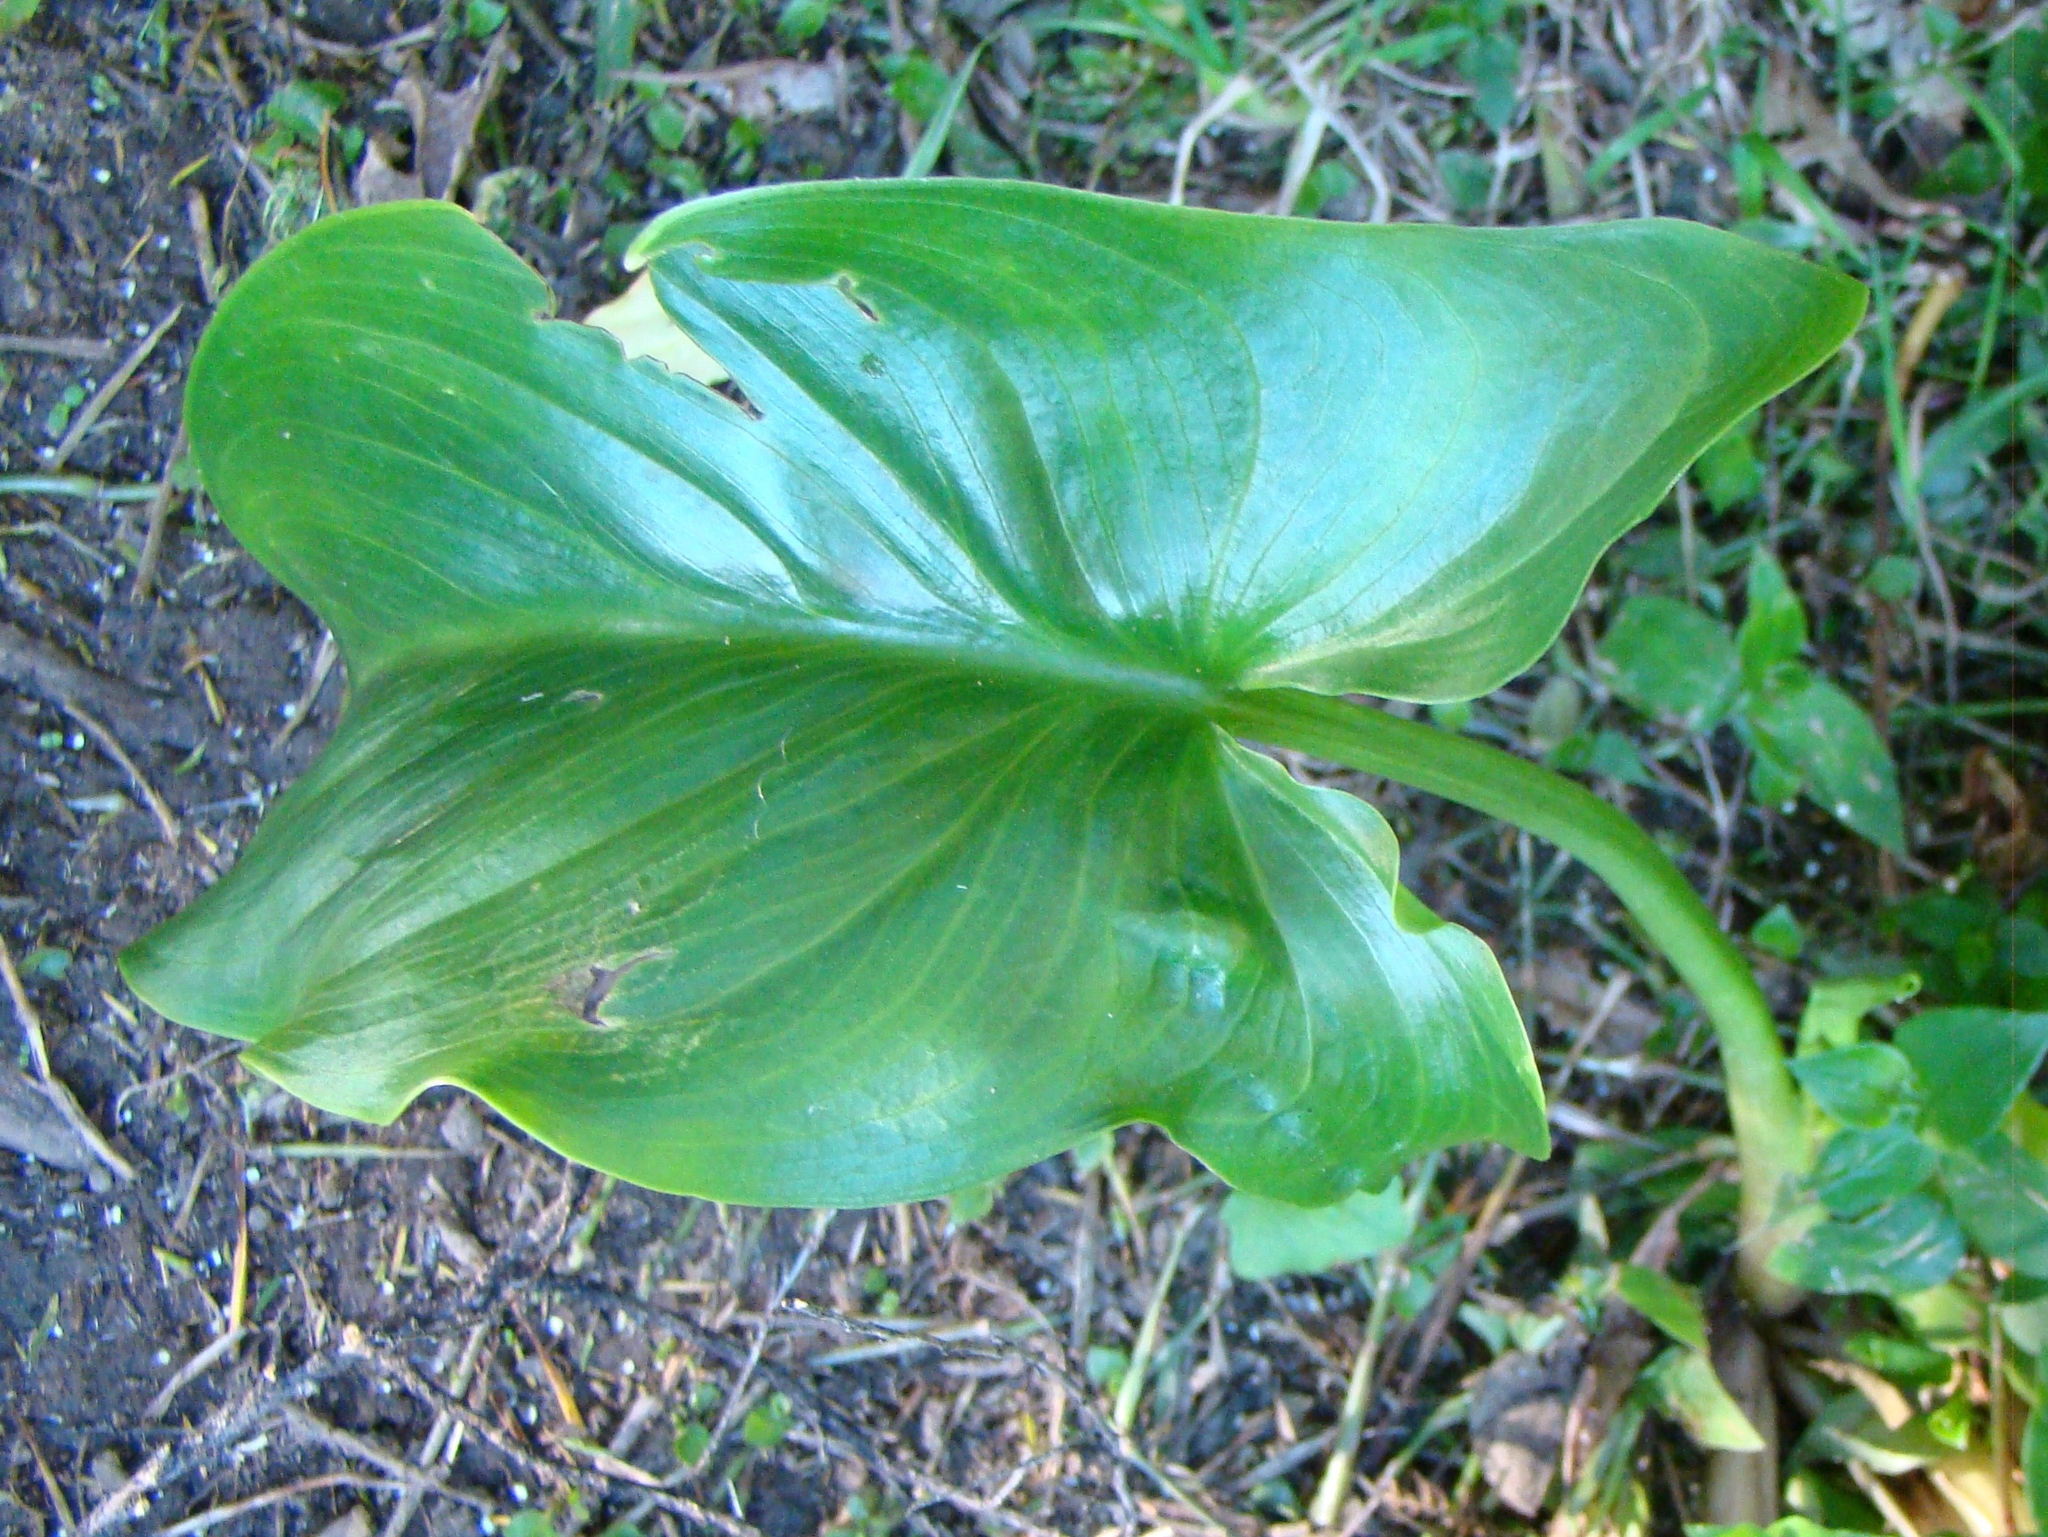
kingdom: Plantae
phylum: Tracheophyta
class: Liliopsida
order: Alismatales
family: Araceae
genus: Zantedeschia
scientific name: Zantedeschia aethiopica
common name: Altar-lily
